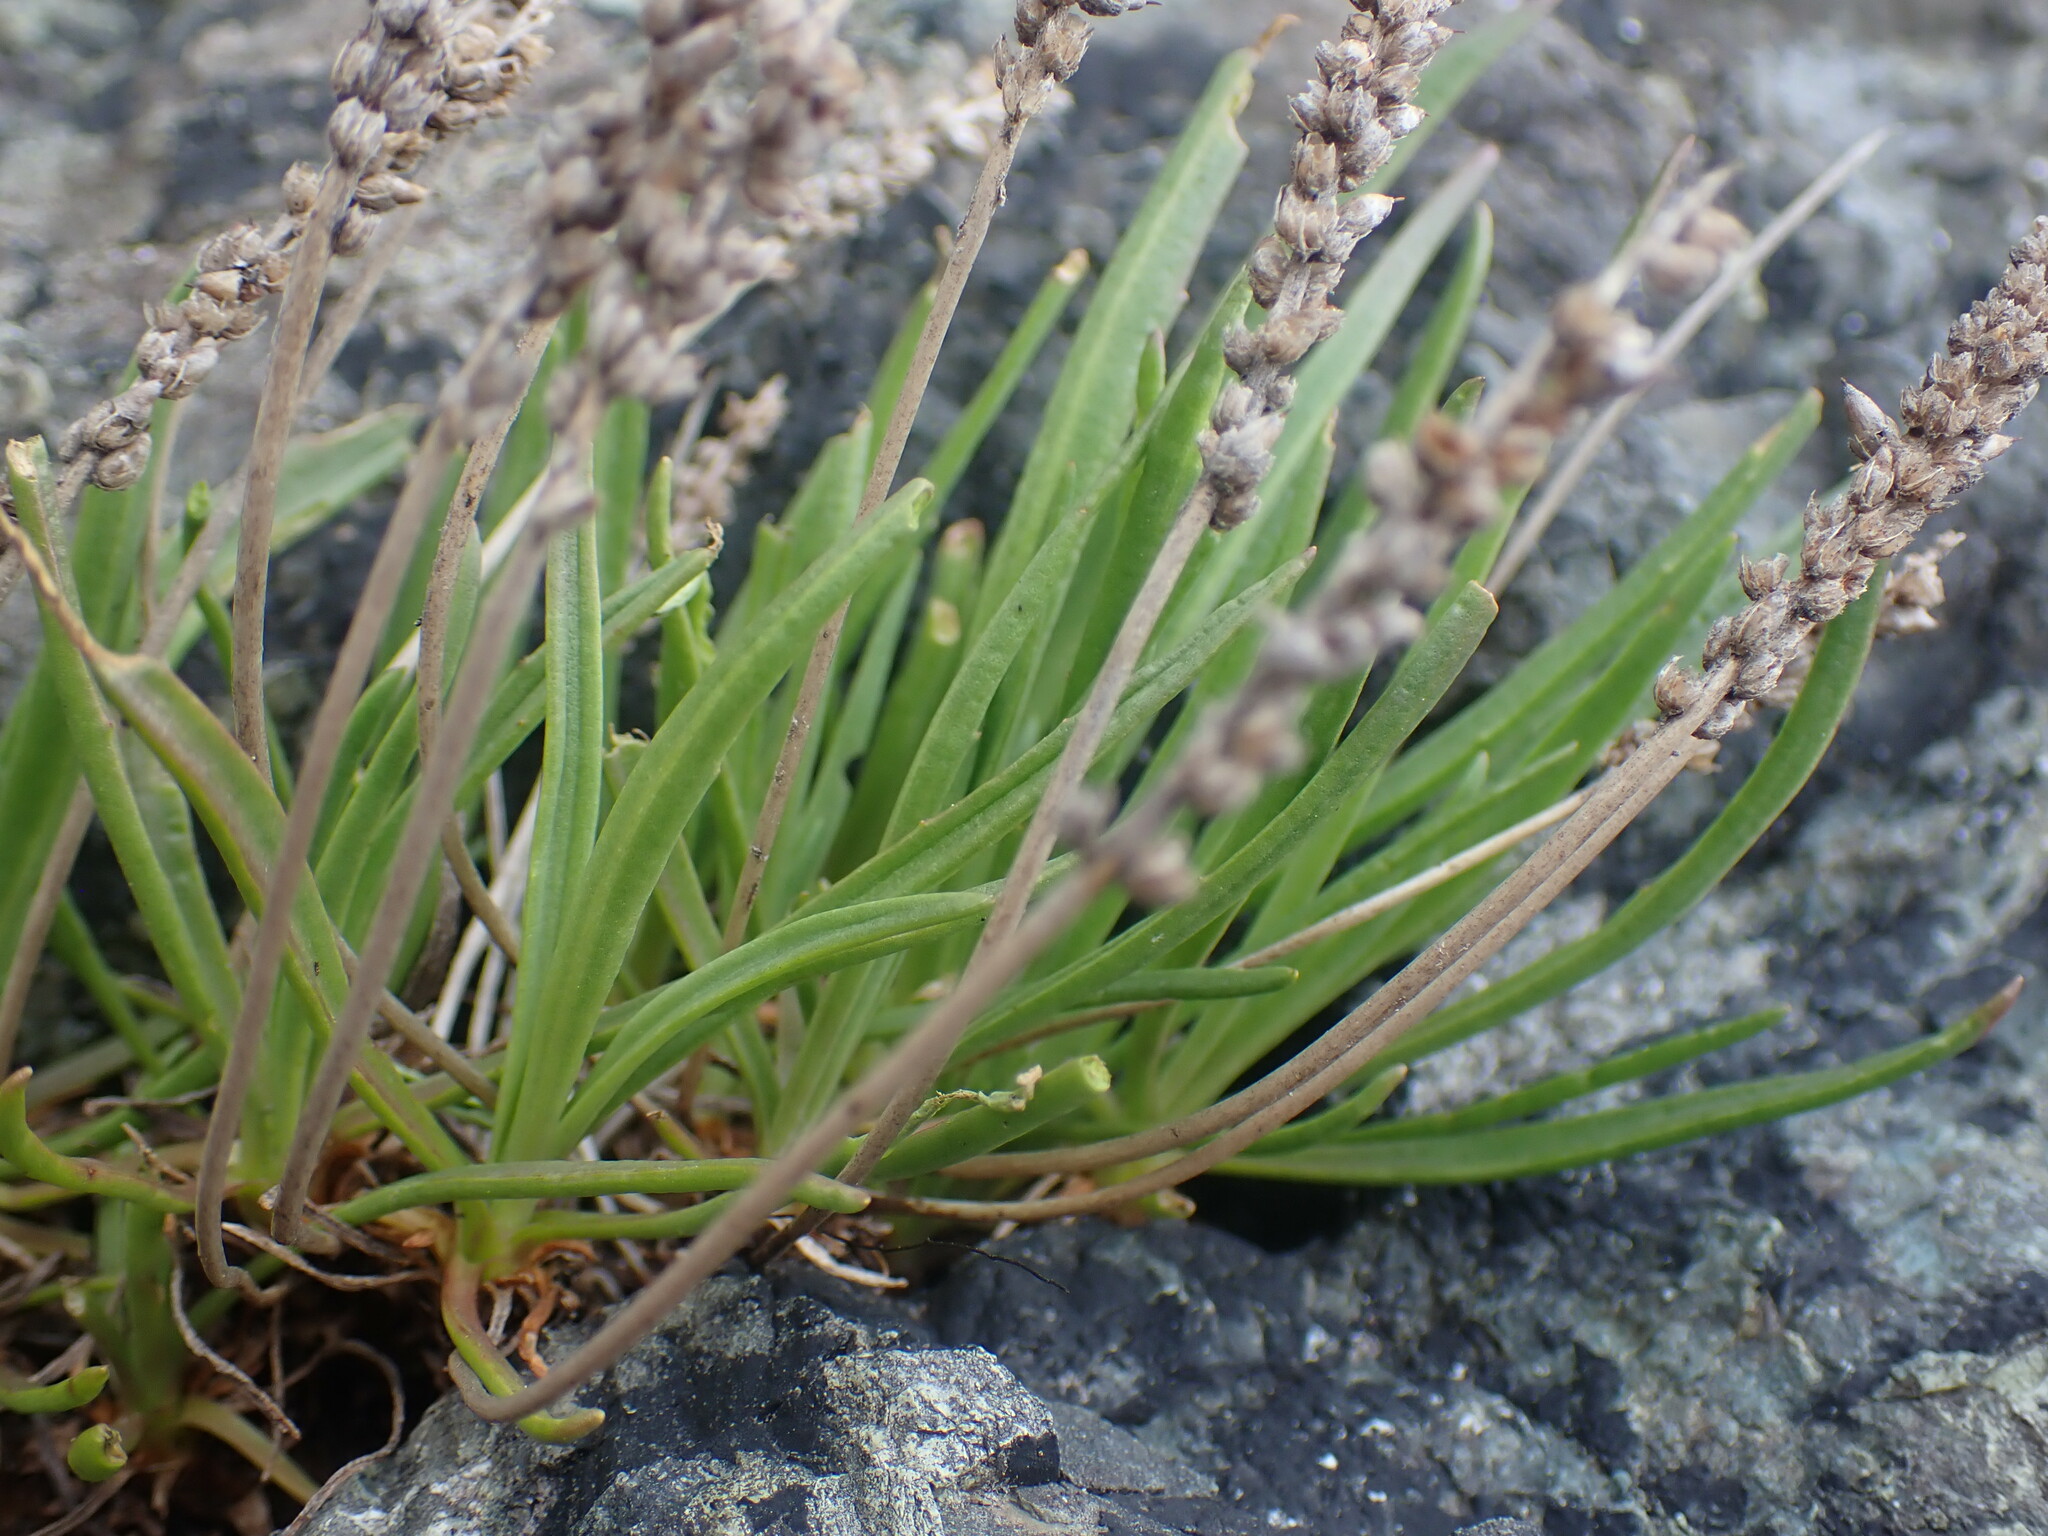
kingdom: Plantae
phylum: Tracheophyta
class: Magnoliopsida
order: Lamiales
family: Plantaginaceae
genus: Plantago
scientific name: Plantago maritima
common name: Sea plantain
